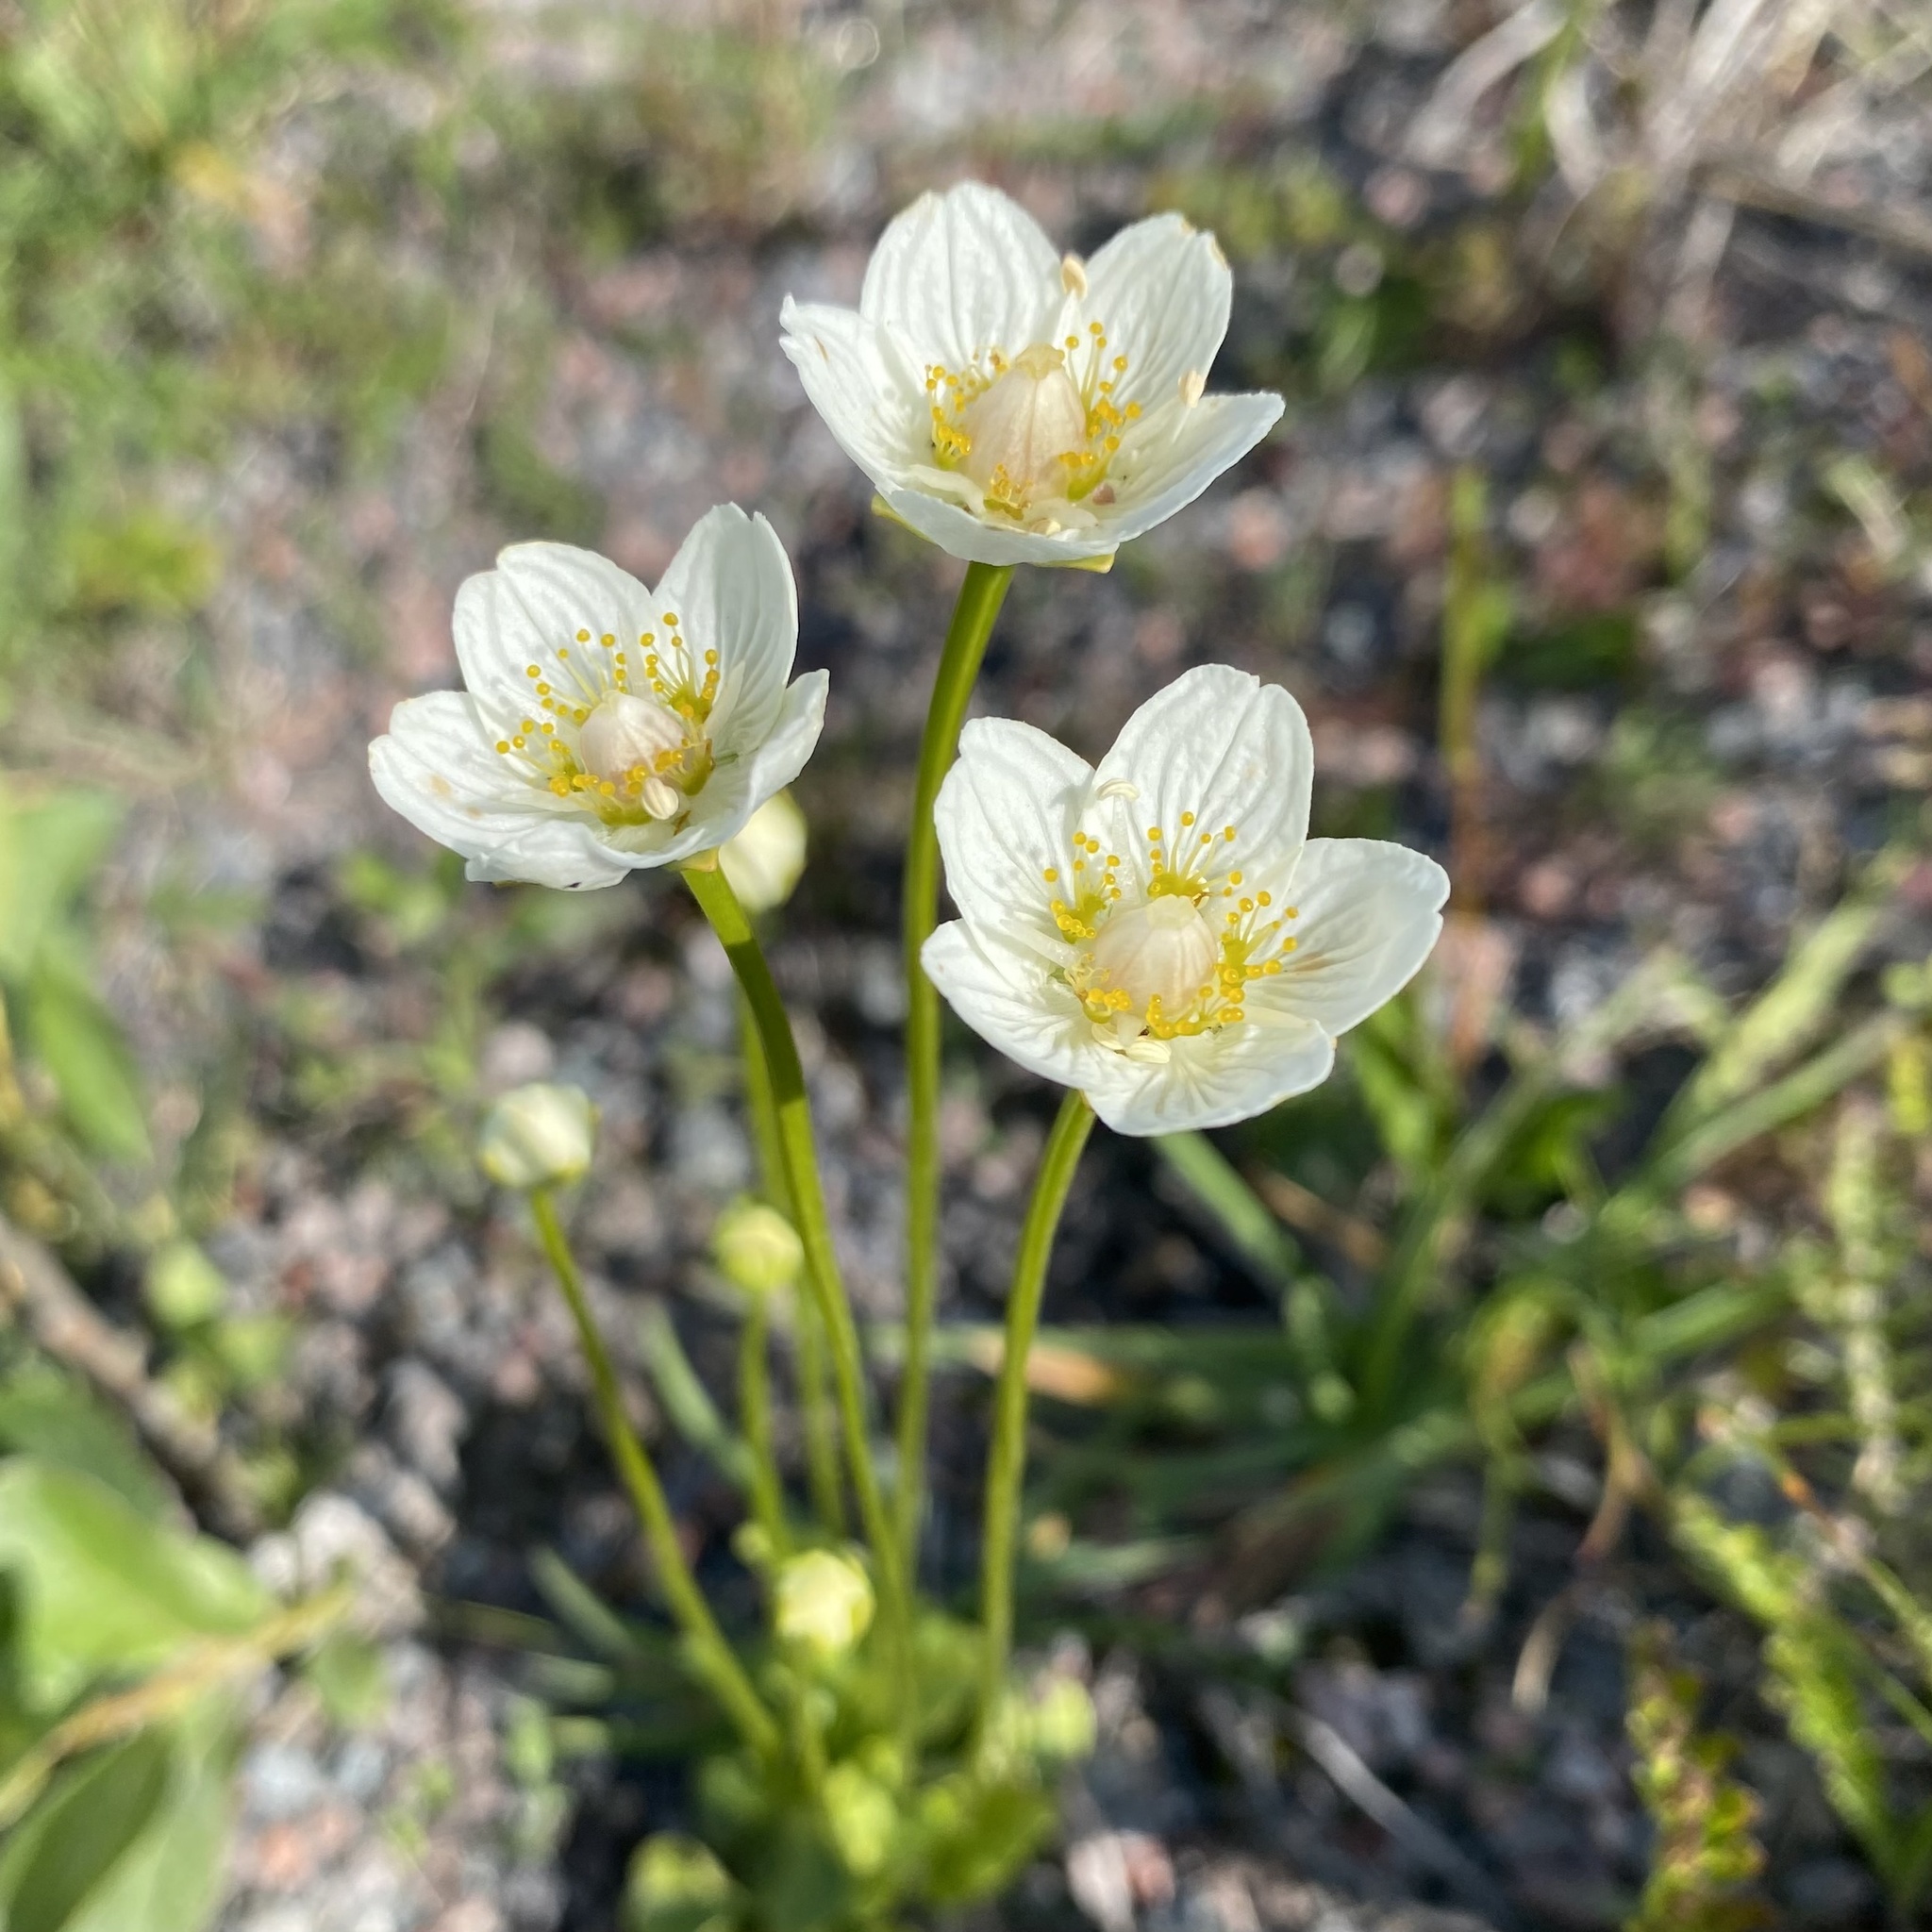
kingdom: Plantae
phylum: Tracheophyta
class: Magnoliopsida
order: Celastrales
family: Parnassiaceae
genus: Parnassia
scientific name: Parnassia palustris
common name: Grass-of-parnassus
